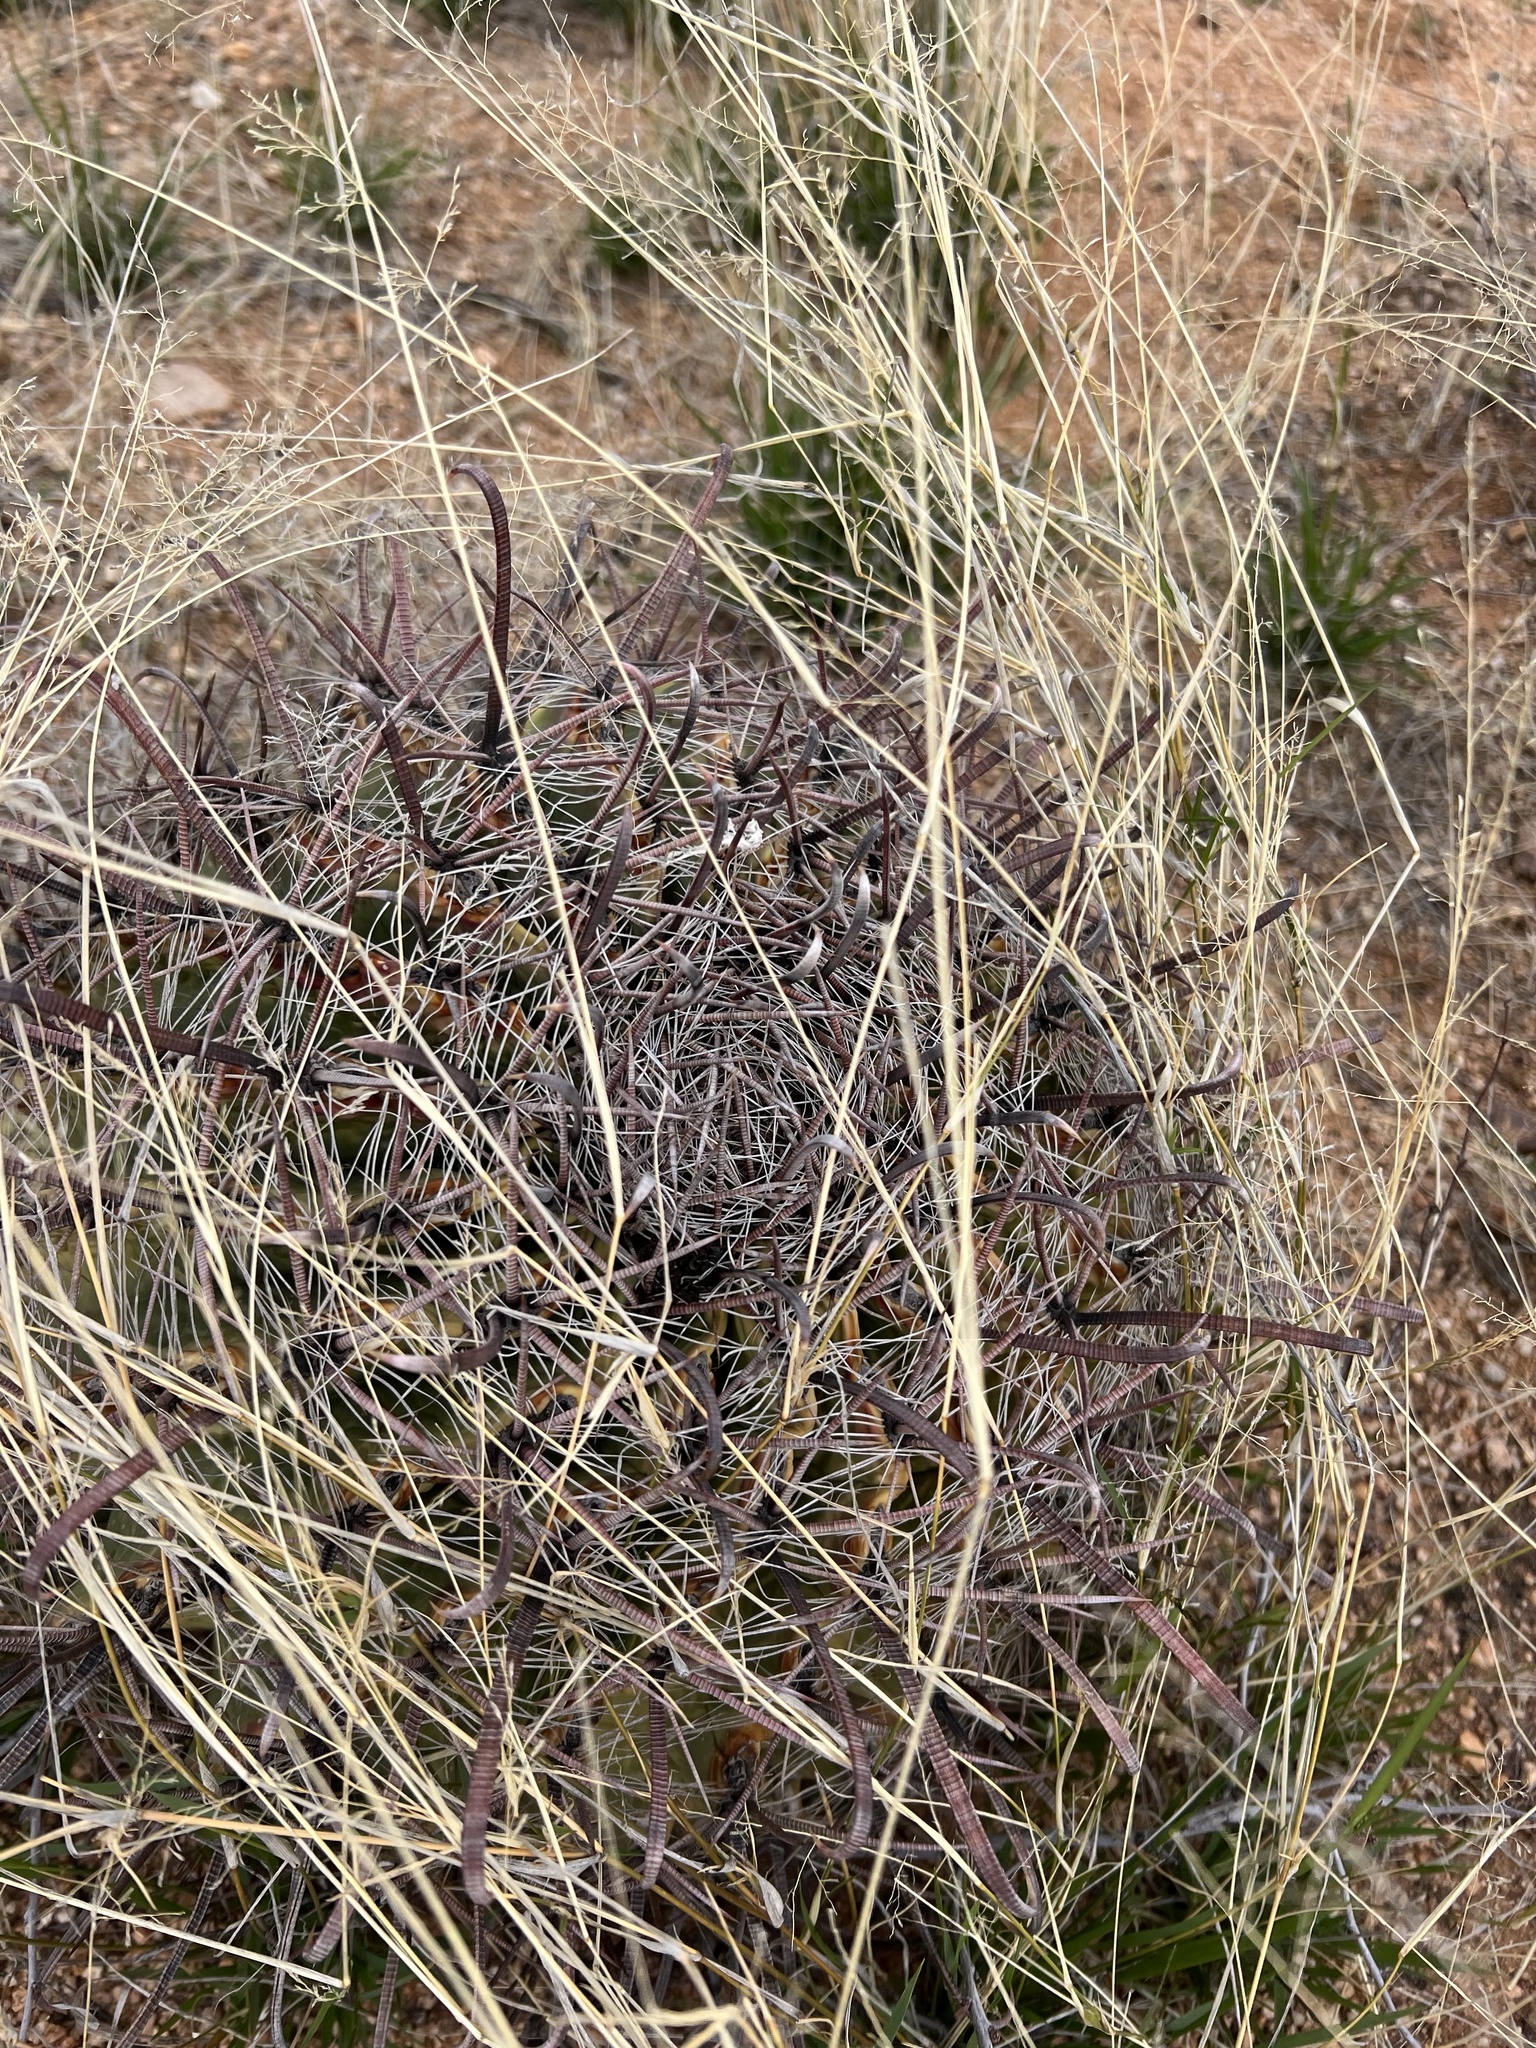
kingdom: Plantae
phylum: Tracheophyta
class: Magnoliopsida
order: Caryophyllales
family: Cactaceae
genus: Ferocactus
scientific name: Ferocactus wislizeni
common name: Candy barrel cactus
